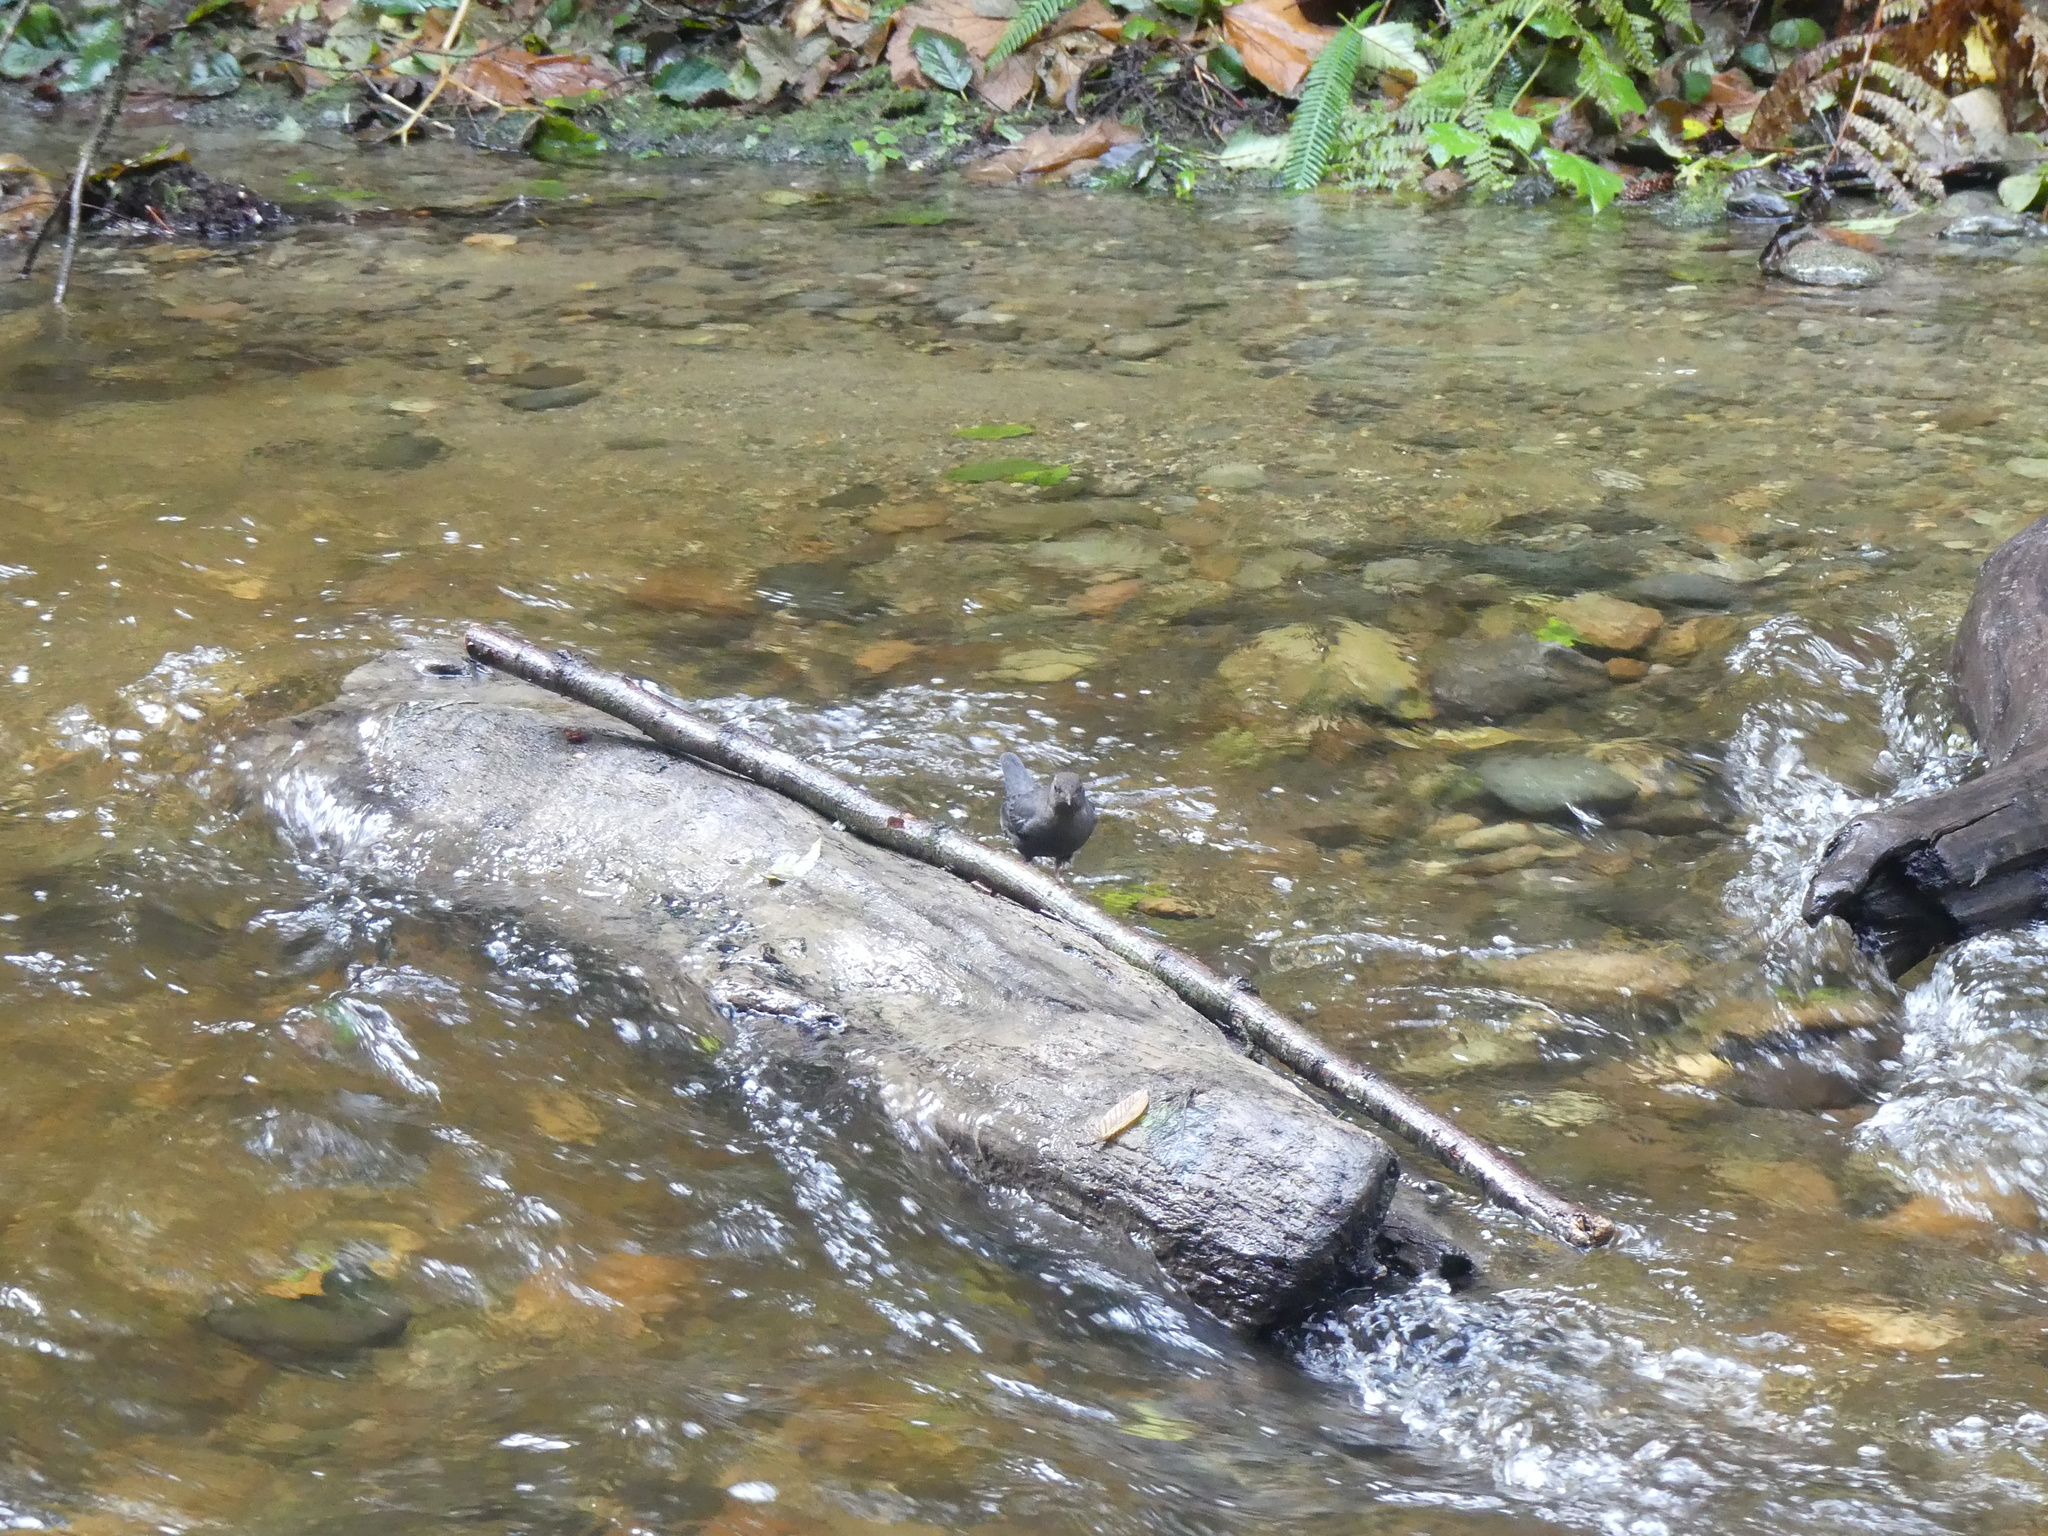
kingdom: Animalia
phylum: Chordata
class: Aves
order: Passeriformes
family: Cinclidae
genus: Cinclus
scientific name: Cinclus mexicanus
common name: American dipper
